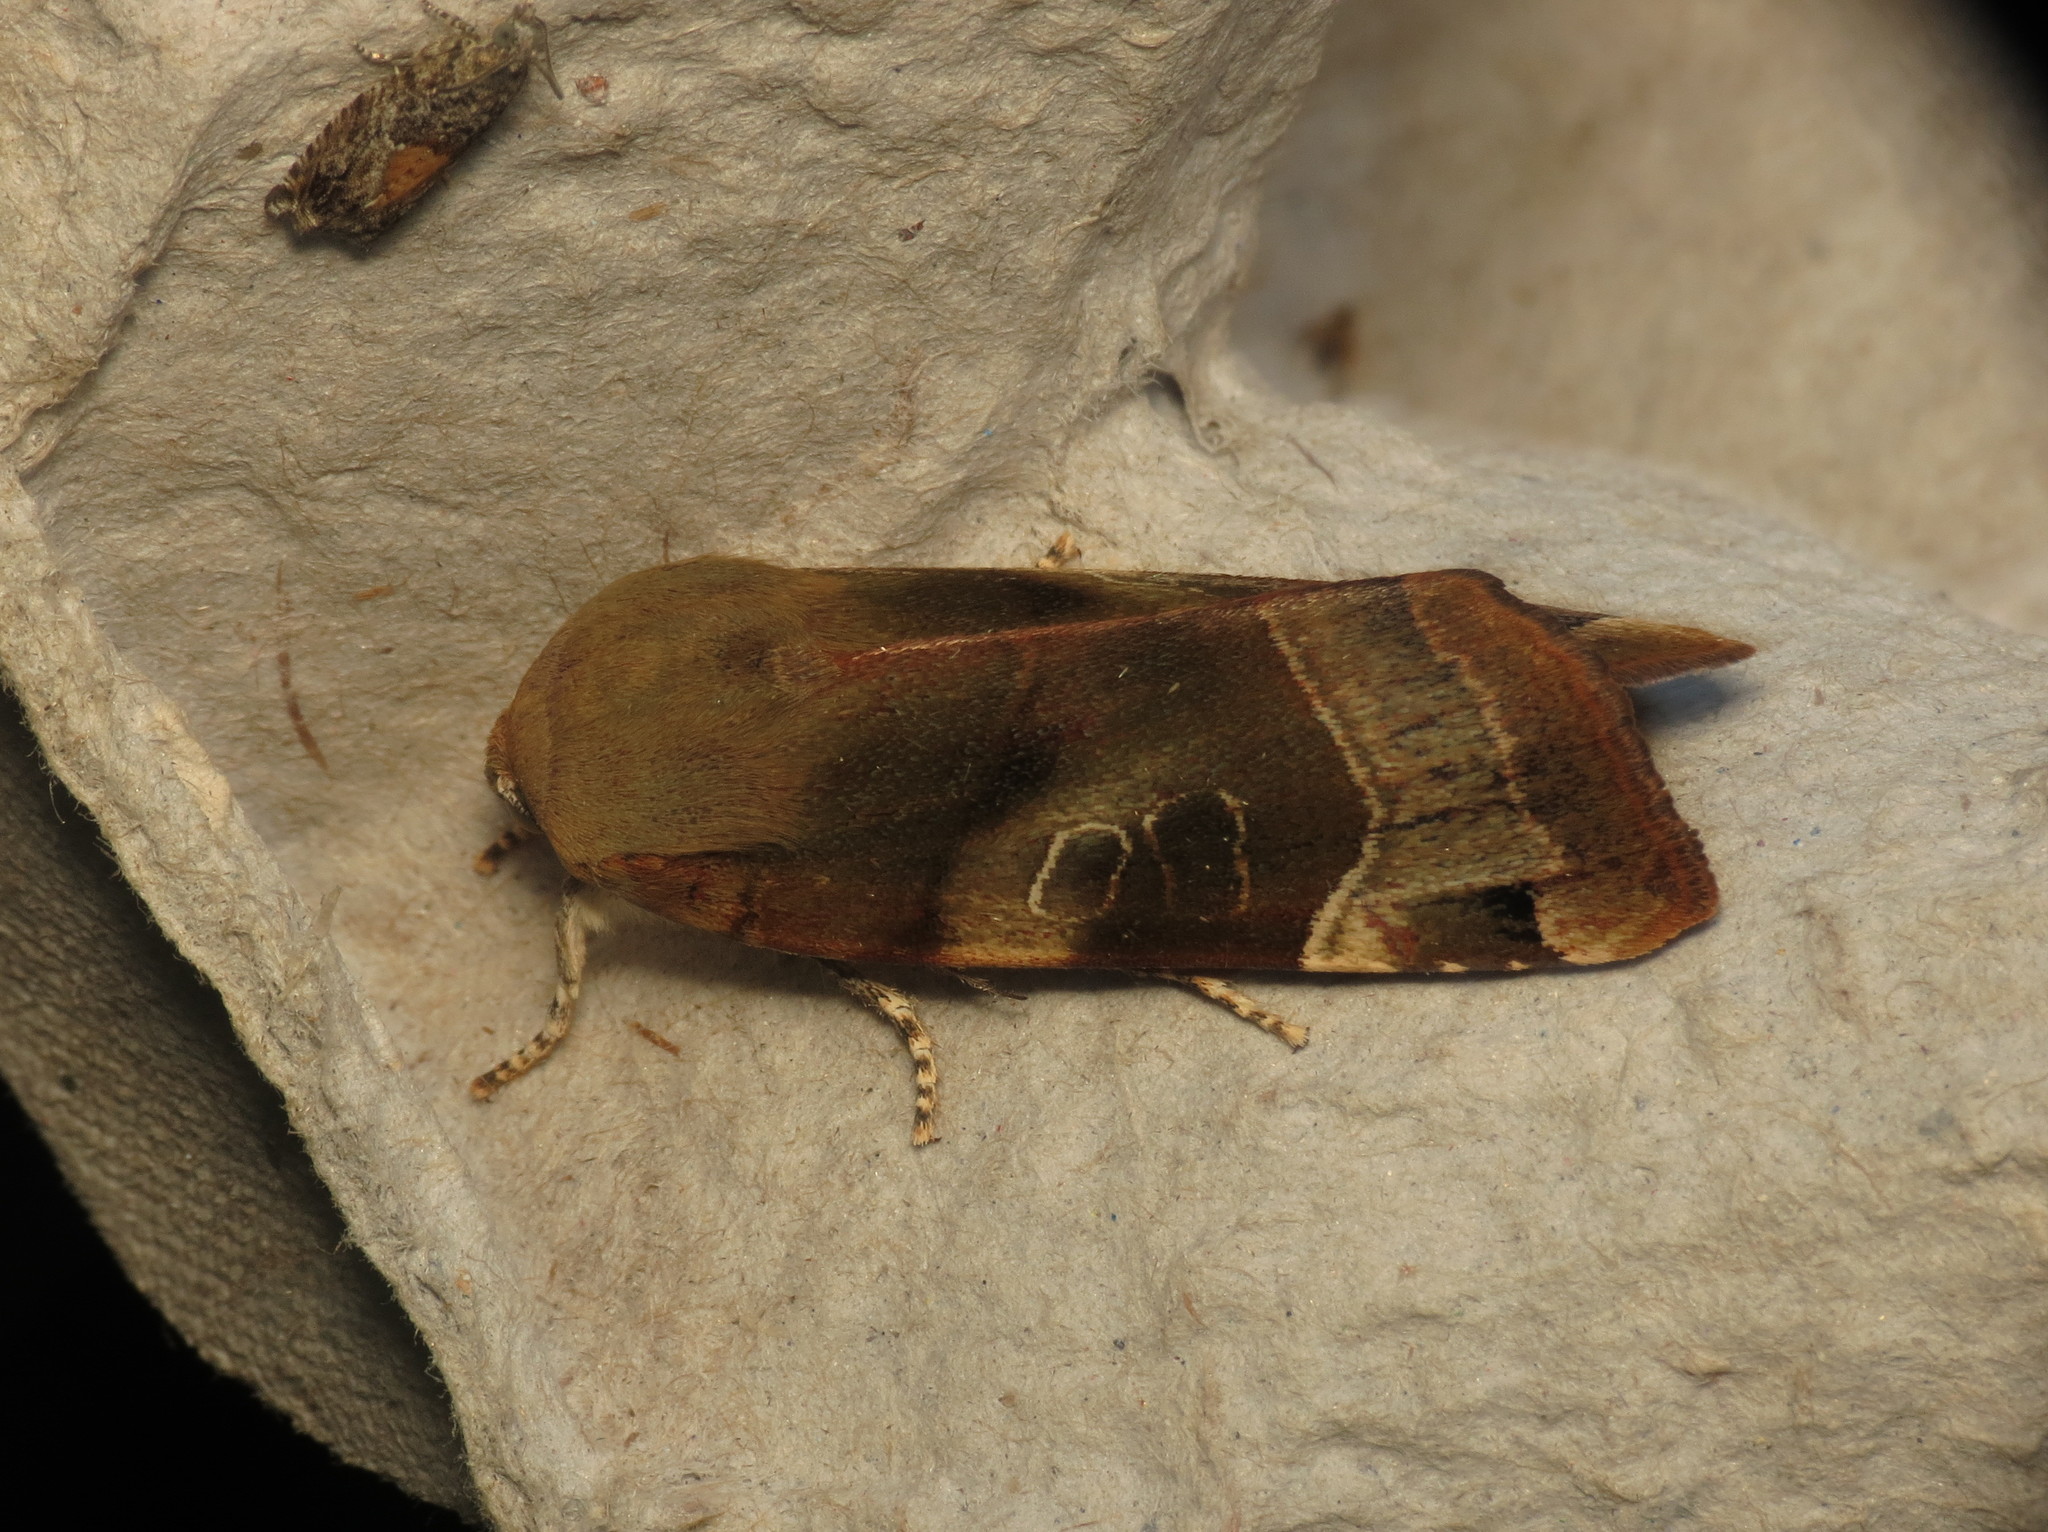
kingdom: Animalia
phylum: Arthropoda
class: Insecta
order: Lepidoptera
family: Noctuidae
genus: Noctua
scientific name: Noctua fimbriata
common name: Broad-bordered yellow underwing
